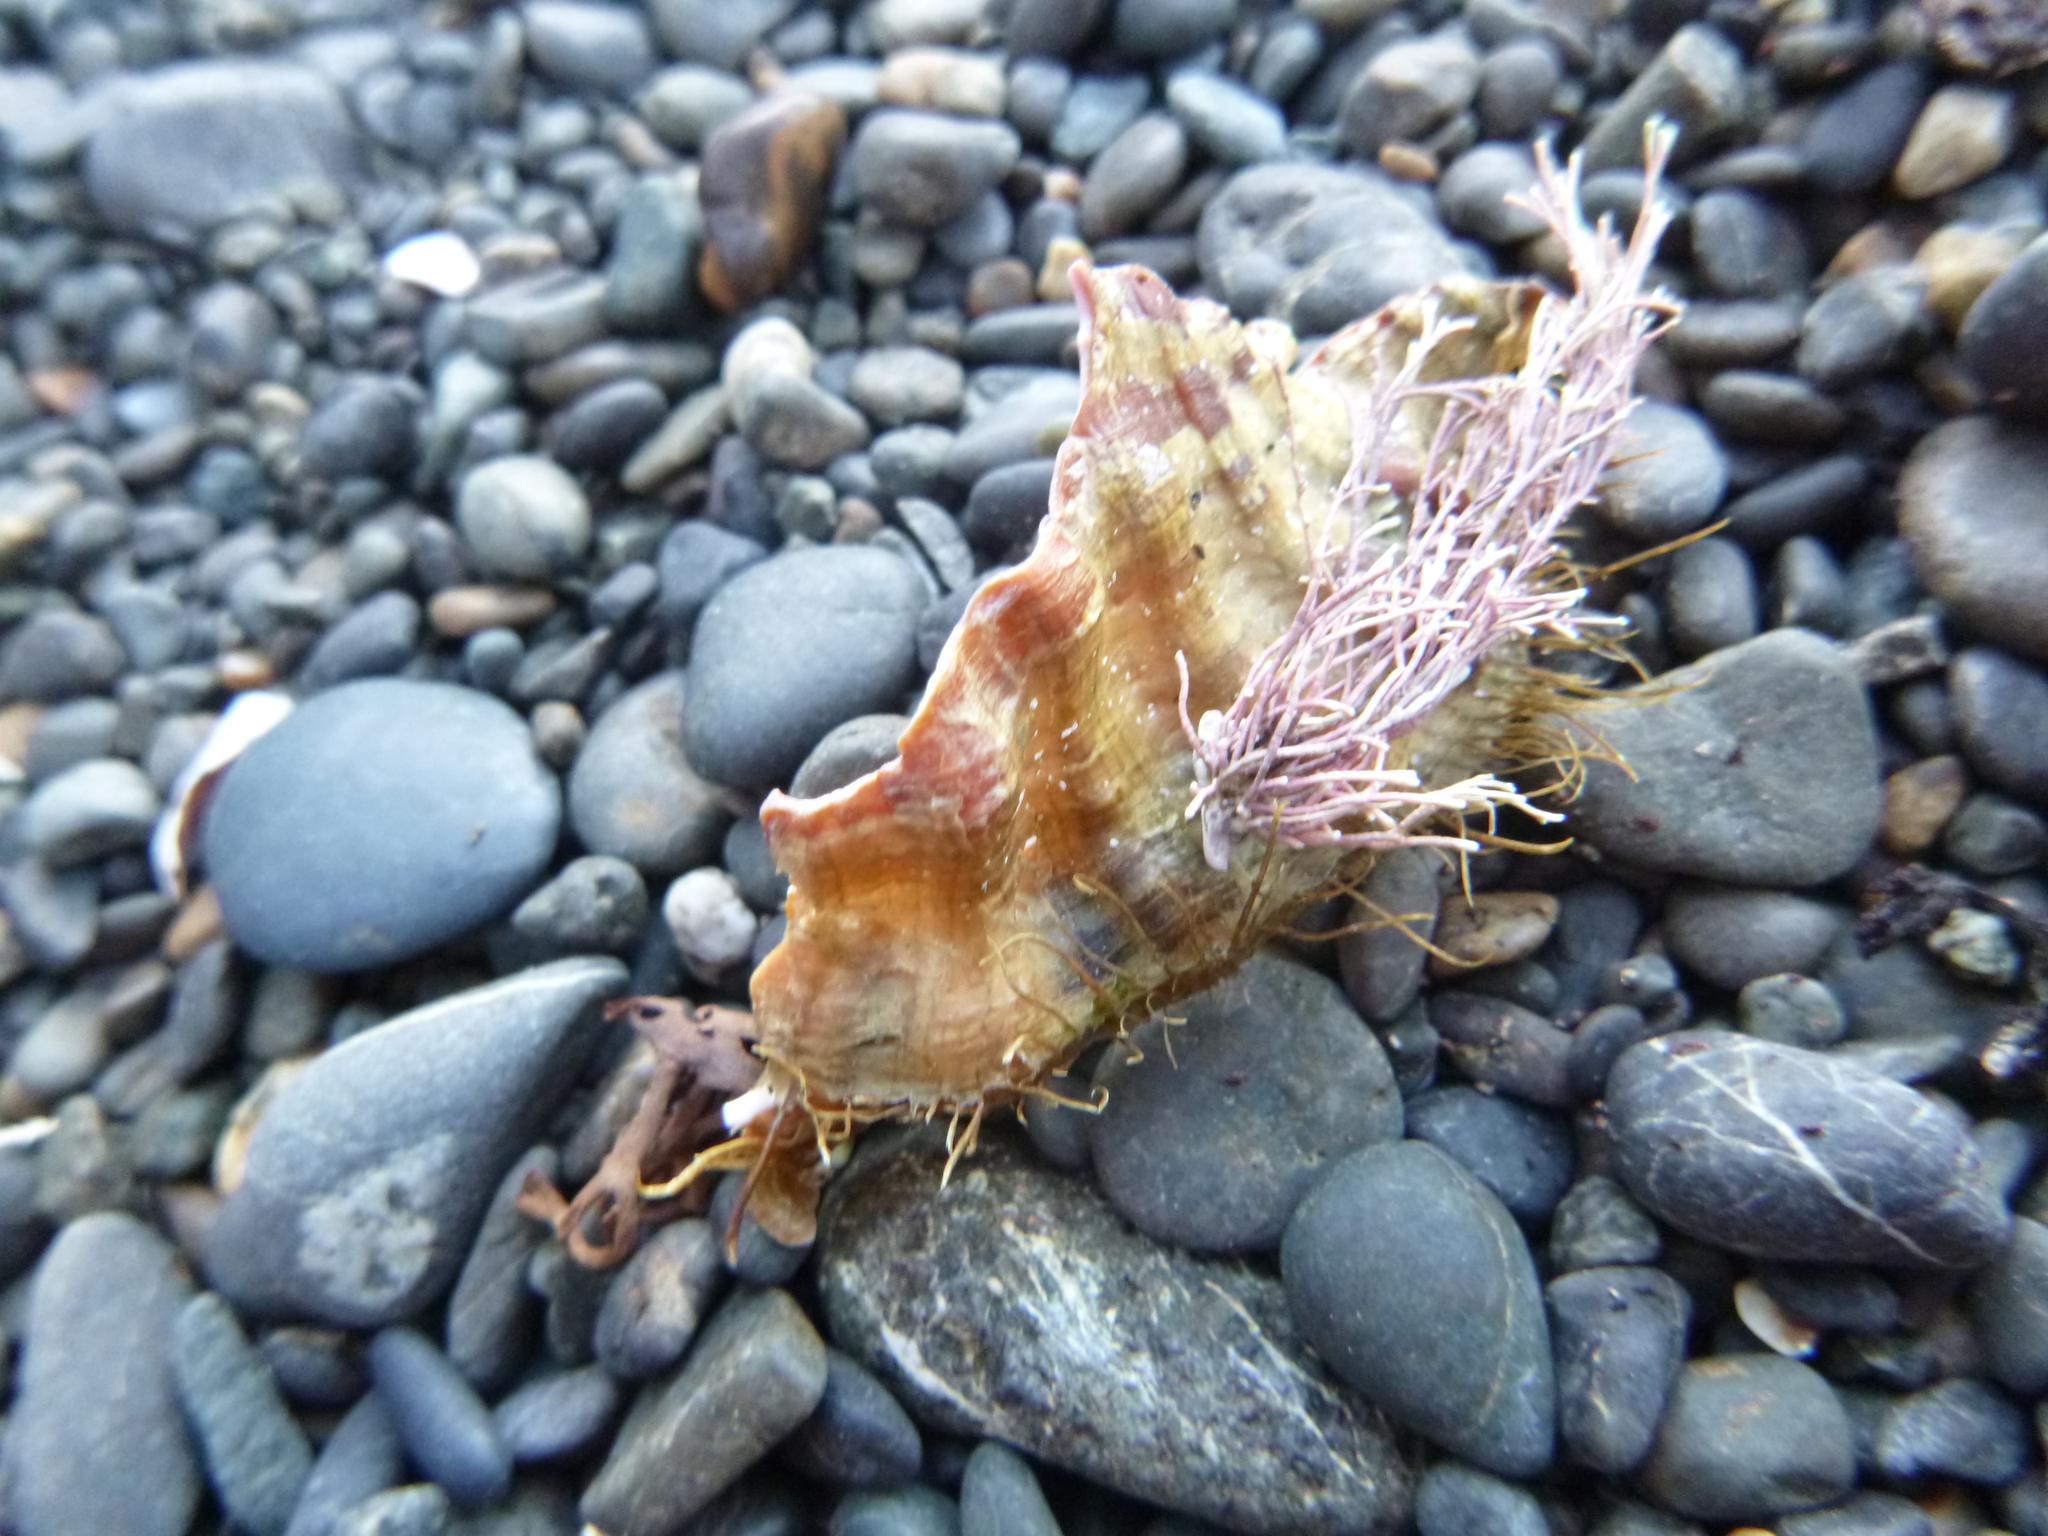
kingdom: Animalia
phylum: Mollusca
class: Gastropoda
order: Littorinimorpha
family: Cymatiidae
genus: Monoplex
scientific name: Monoplex parthenopeus
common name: Giant triton
